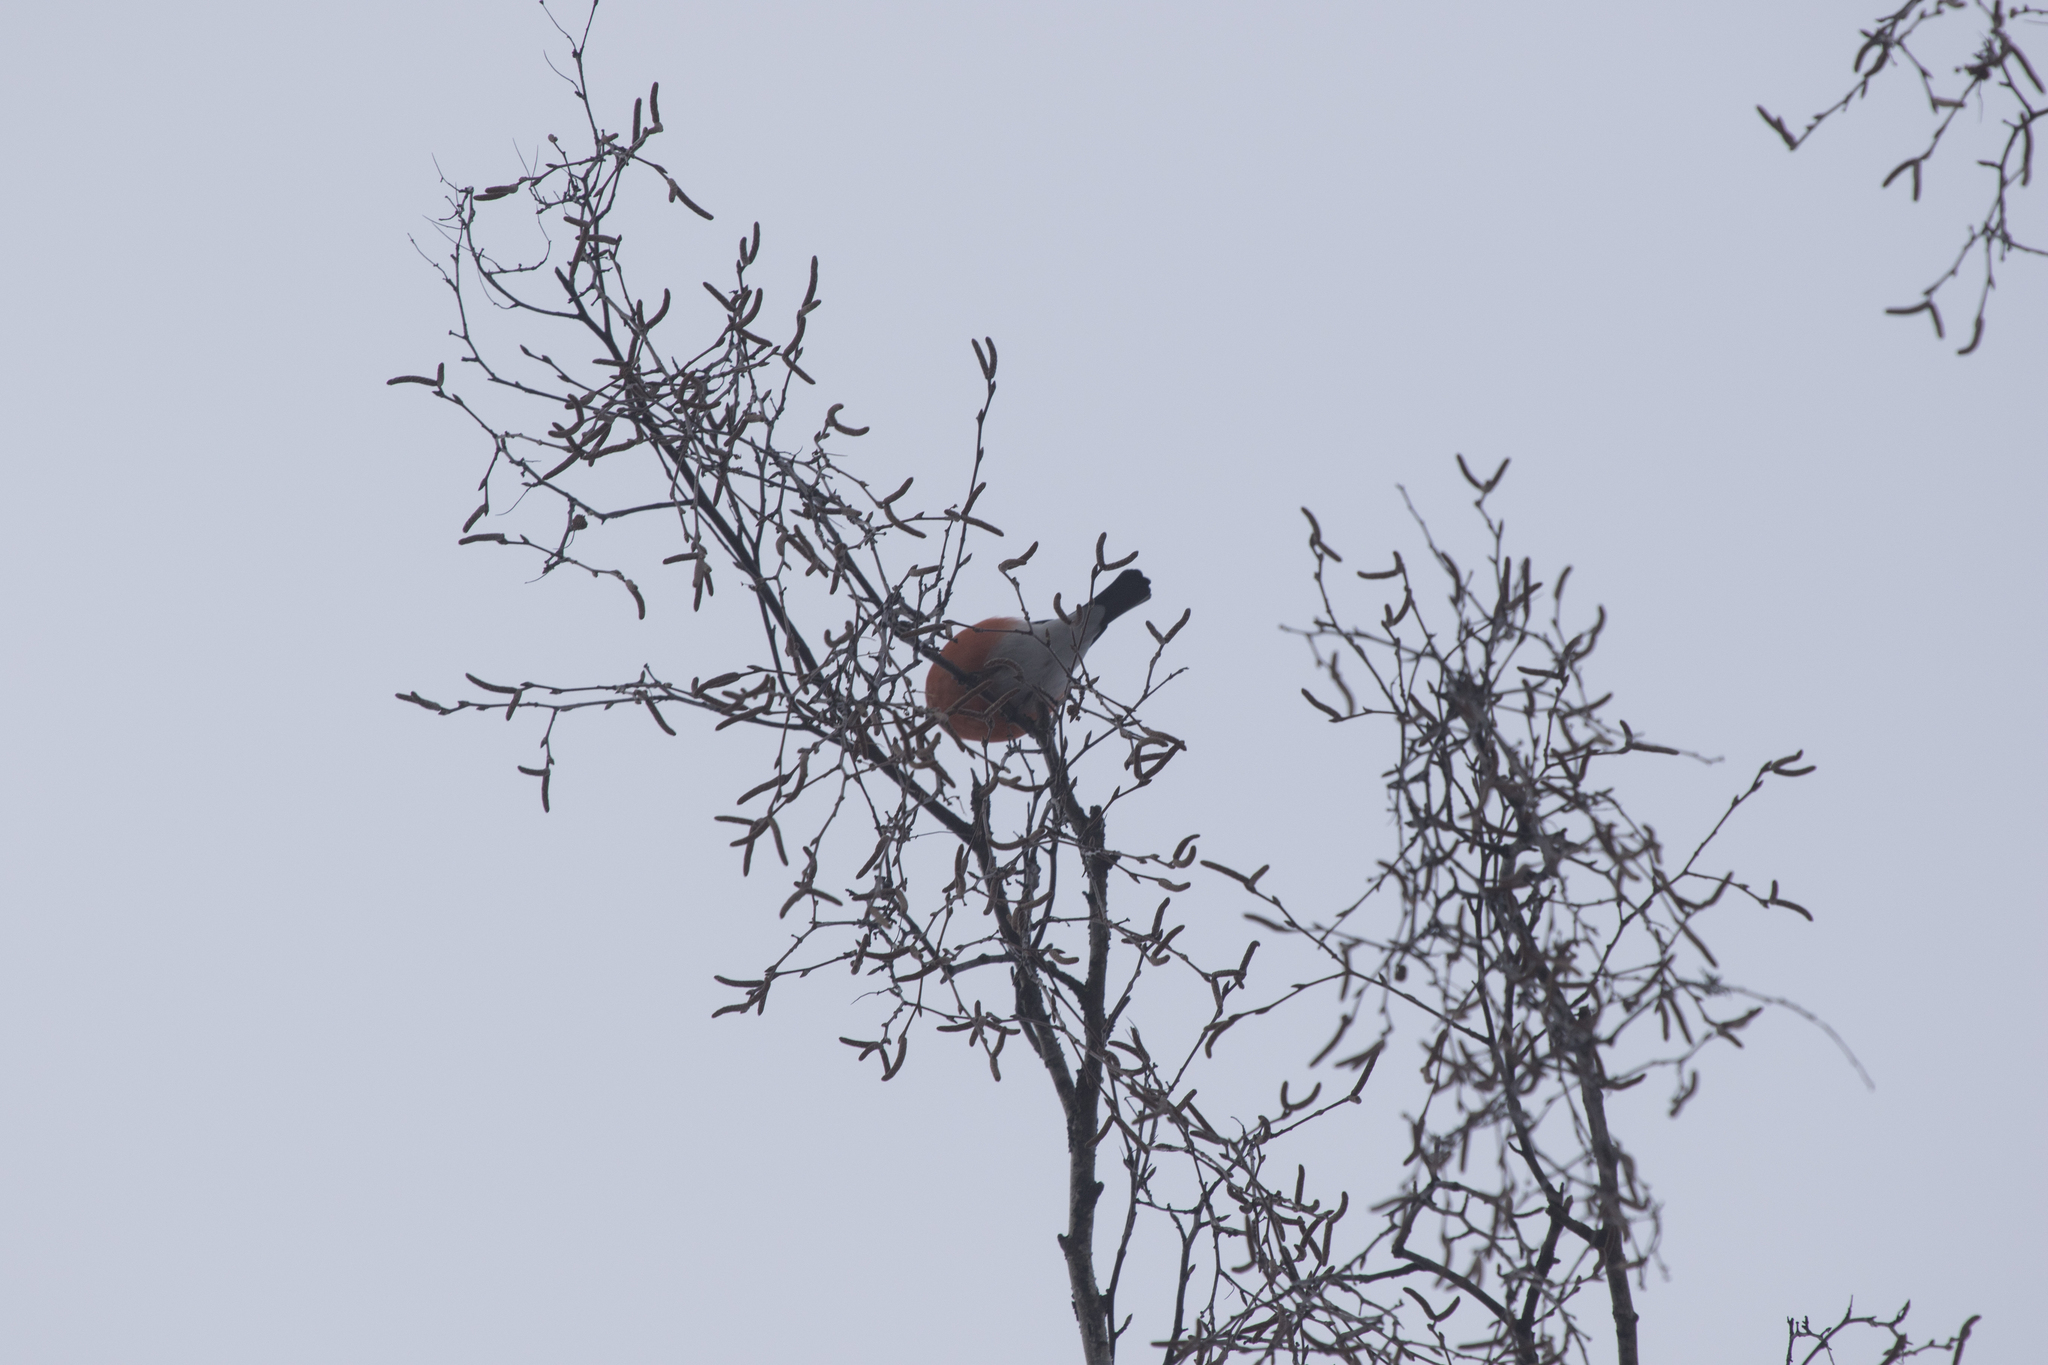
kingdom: Animalia
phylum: Chordata
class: Aves
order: Passeriformes
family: Fringillidae
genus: Pyrrhula
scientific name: Pyrrhula pyrrhula
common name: Eurasian bullfinch
